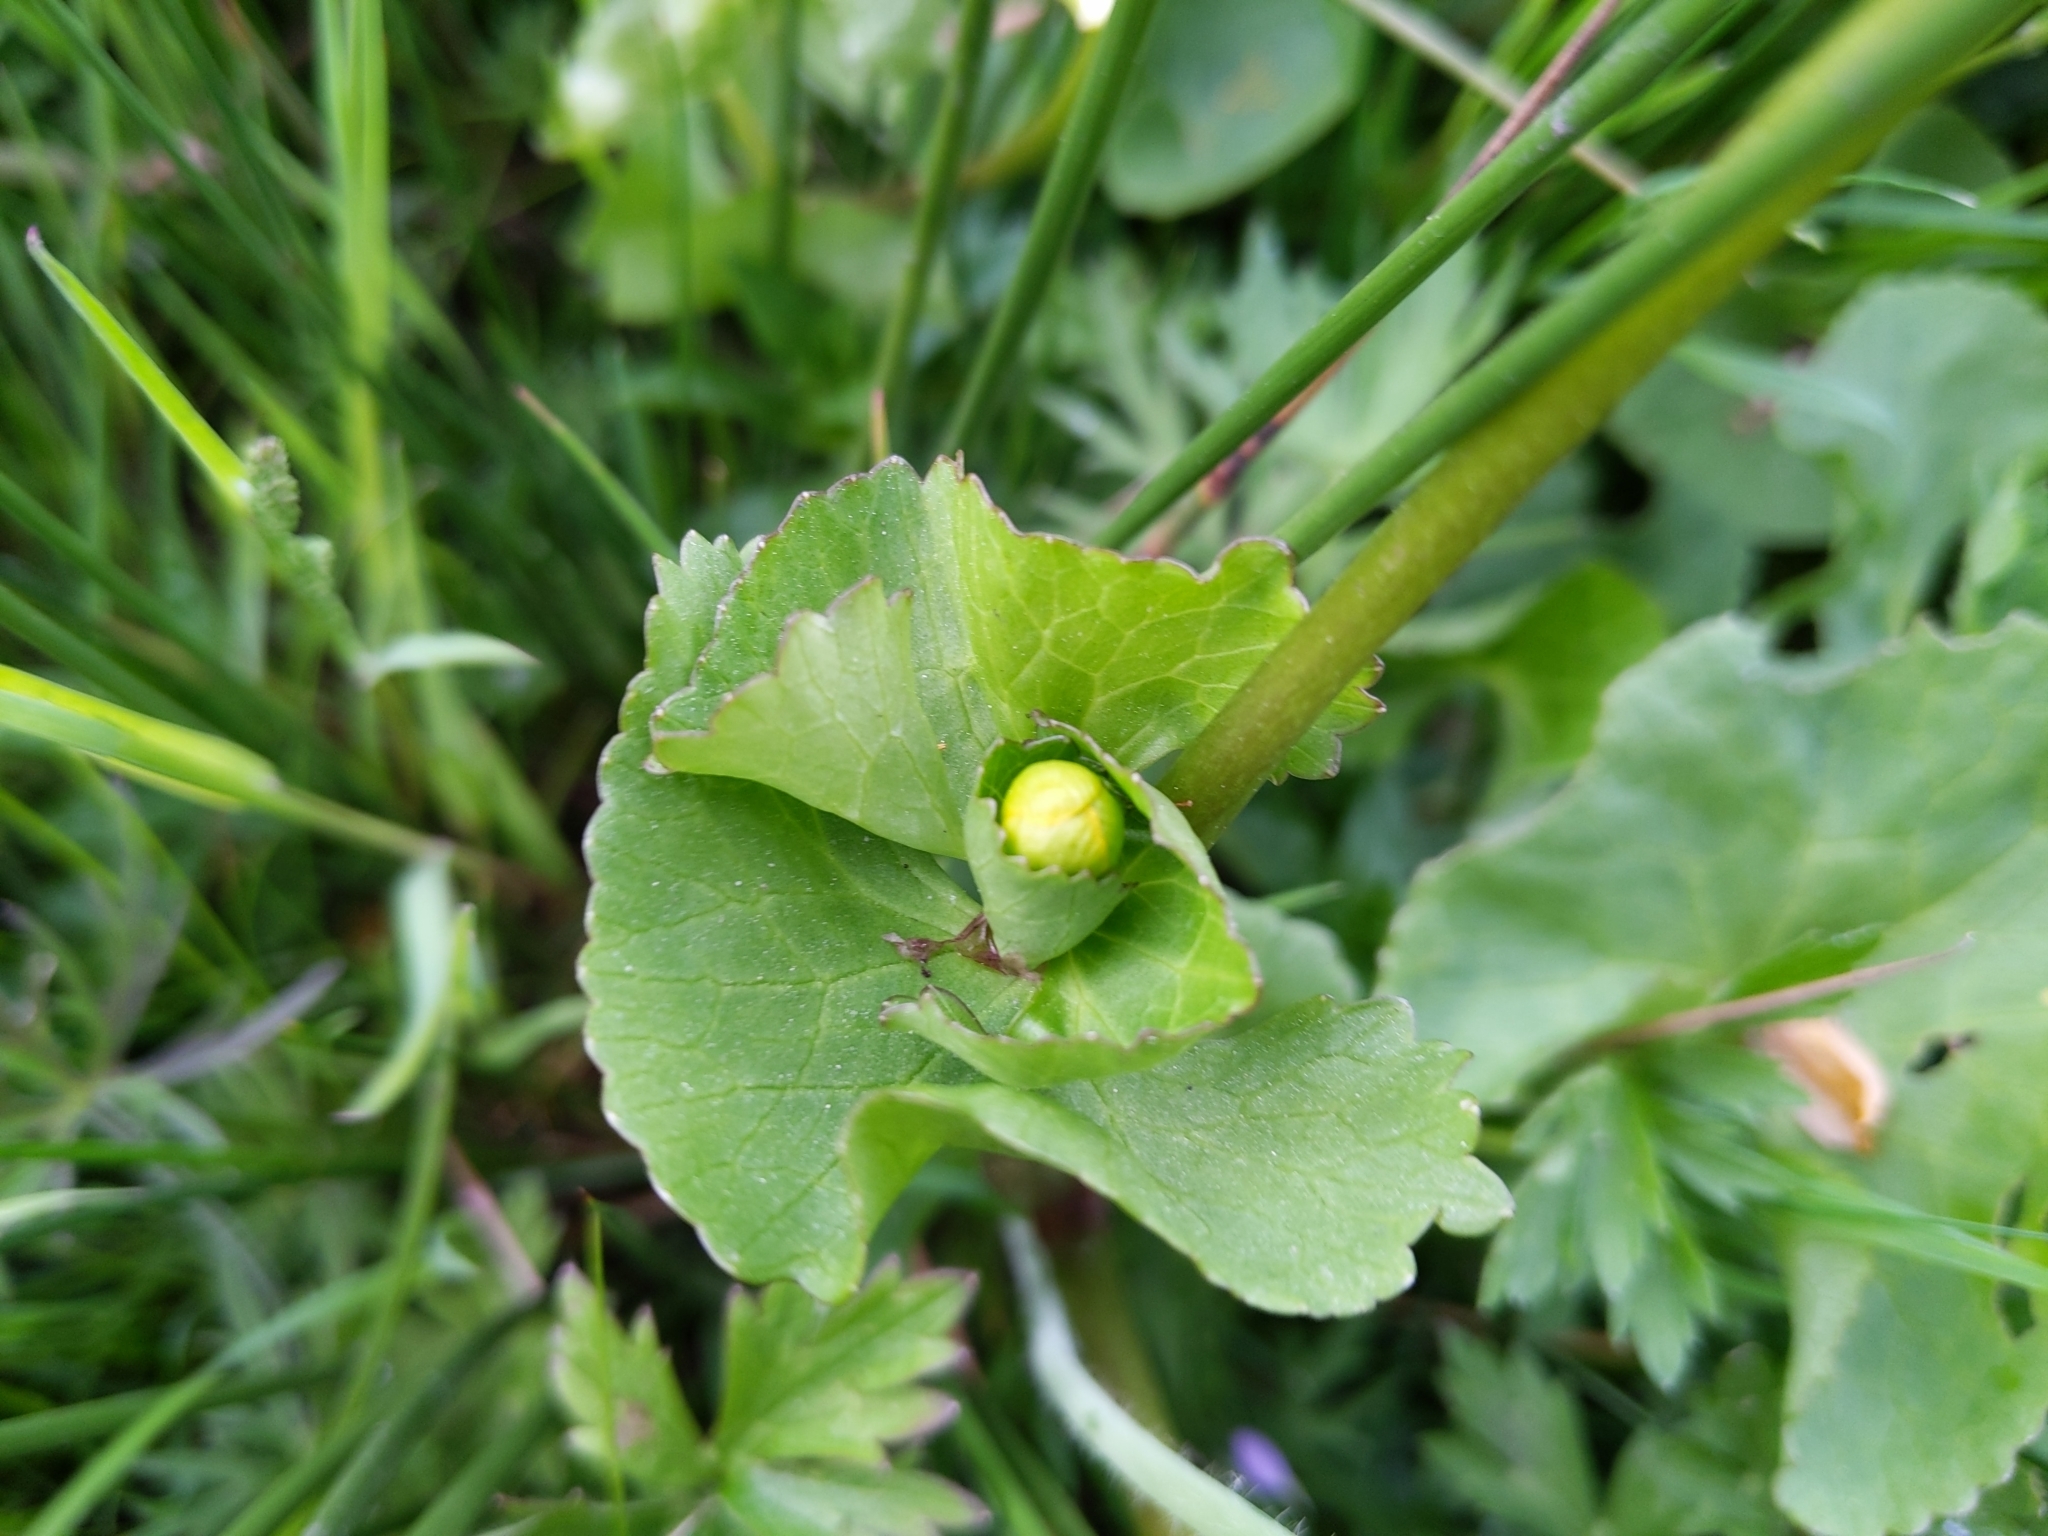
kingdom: Plantae
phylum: Tracheophyta
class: Magnoliopsida
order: Ranunculales
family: Ranunculaceae
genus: Caltha
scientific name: Caltha palustris
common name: Marsh marigold
